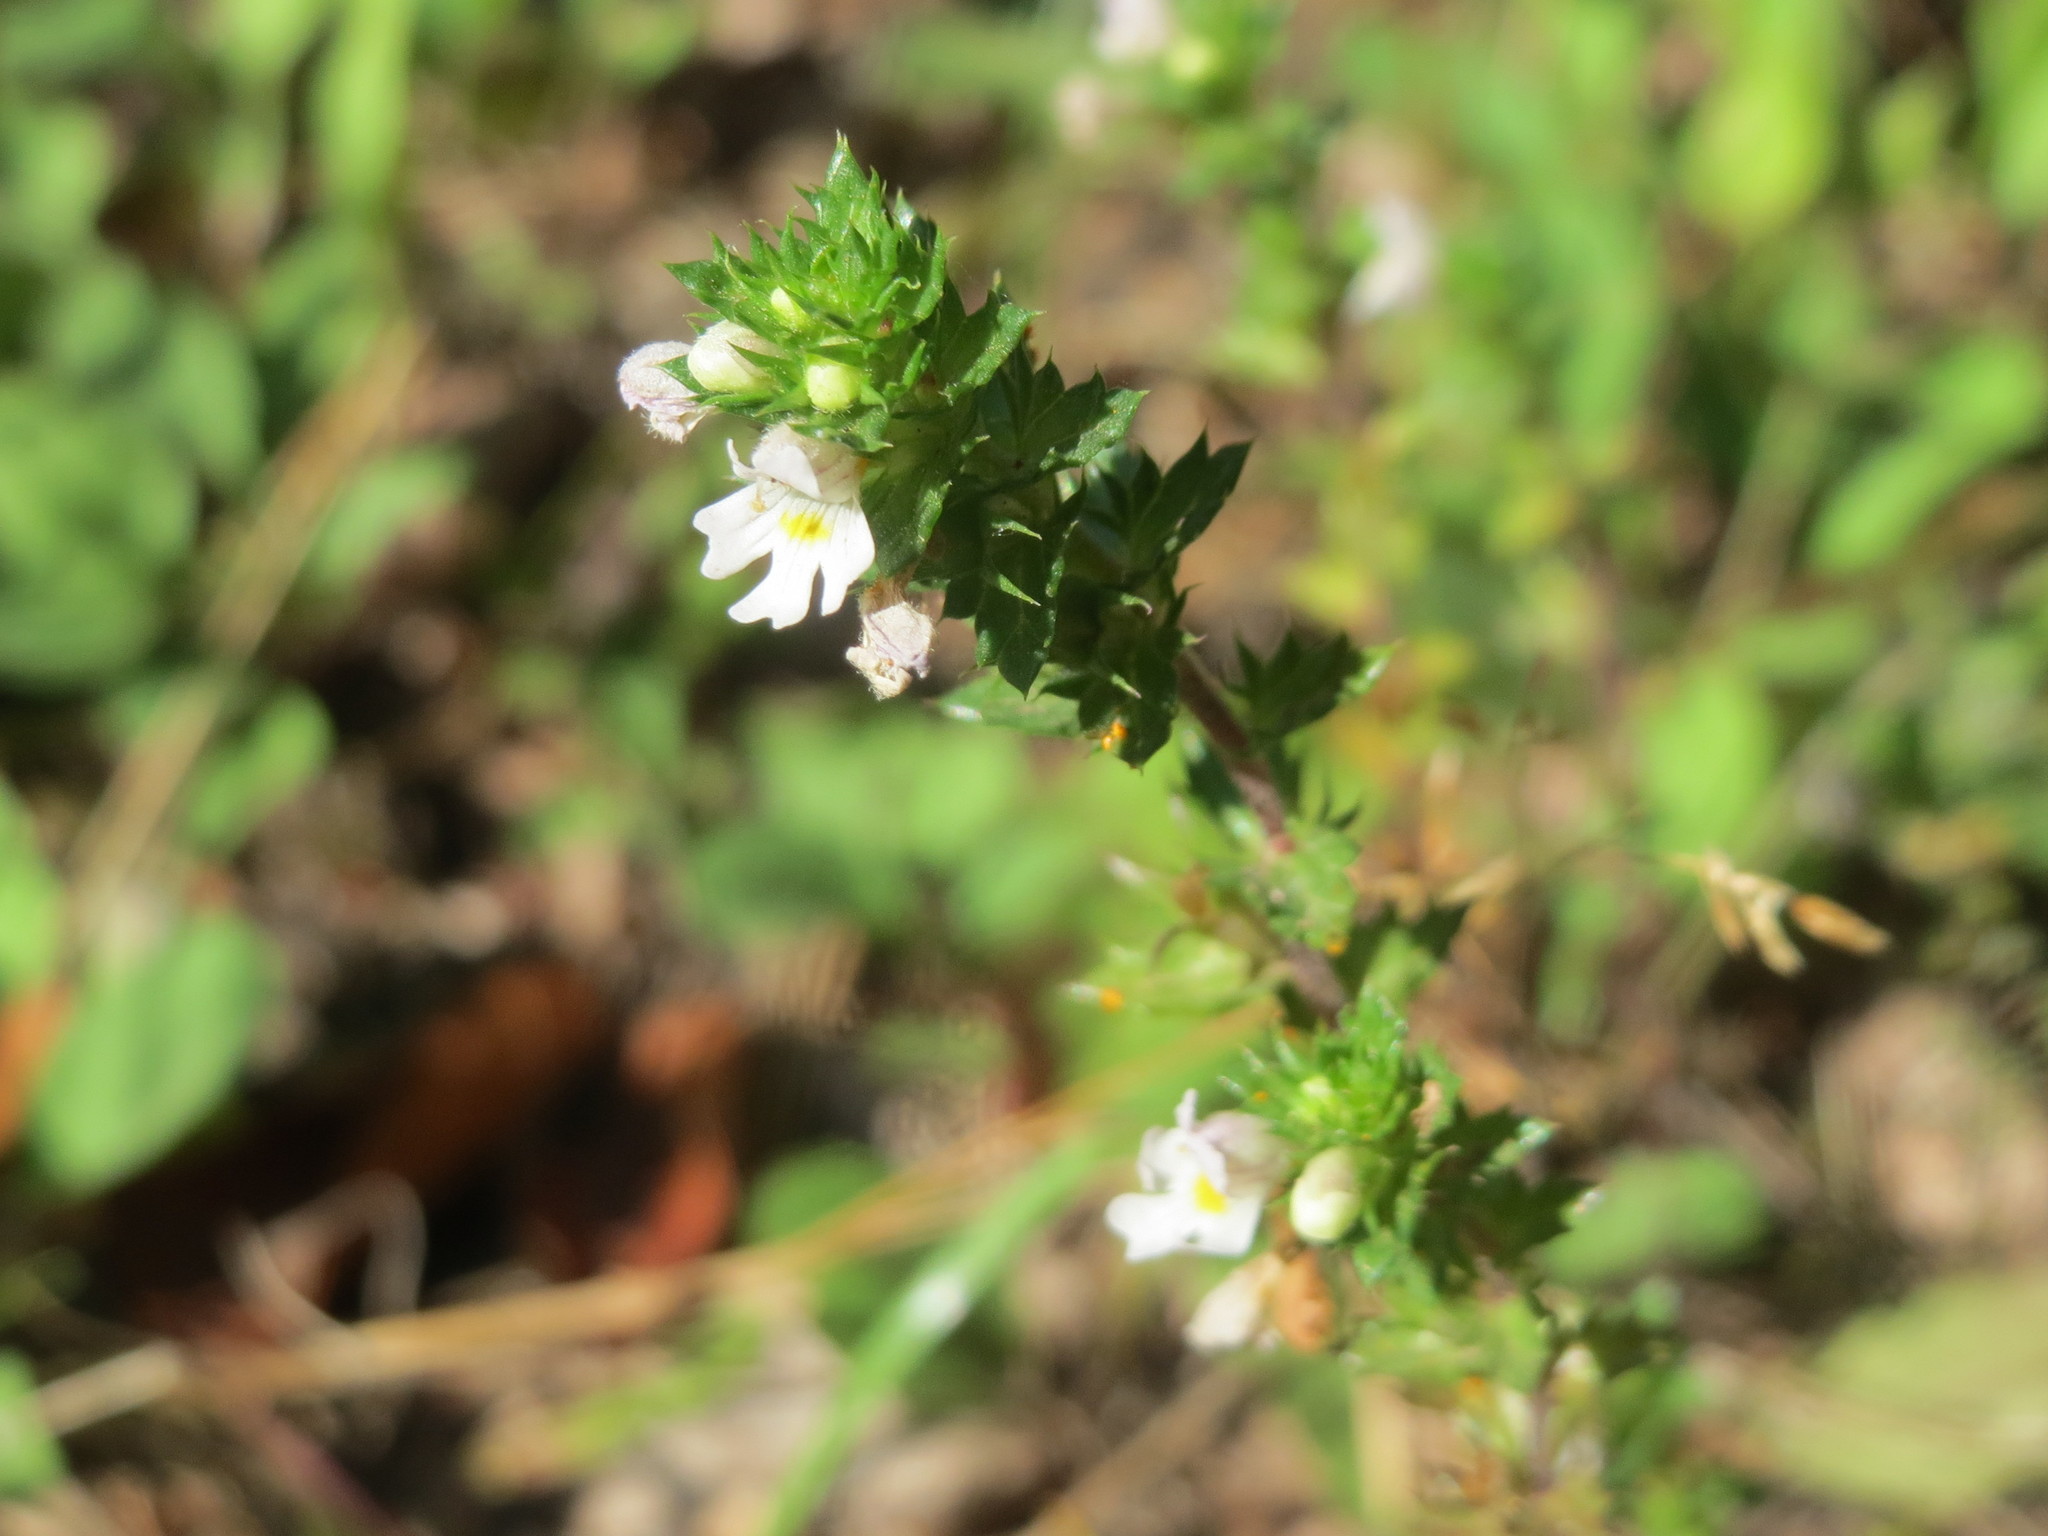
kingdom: Plantae
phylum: Tracheophyta
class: Magnoliopsida
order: Lamiales
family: Orobanchaceae
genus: Euphrasia
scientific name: Euphrasia nemorosa
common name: Common eyebright
